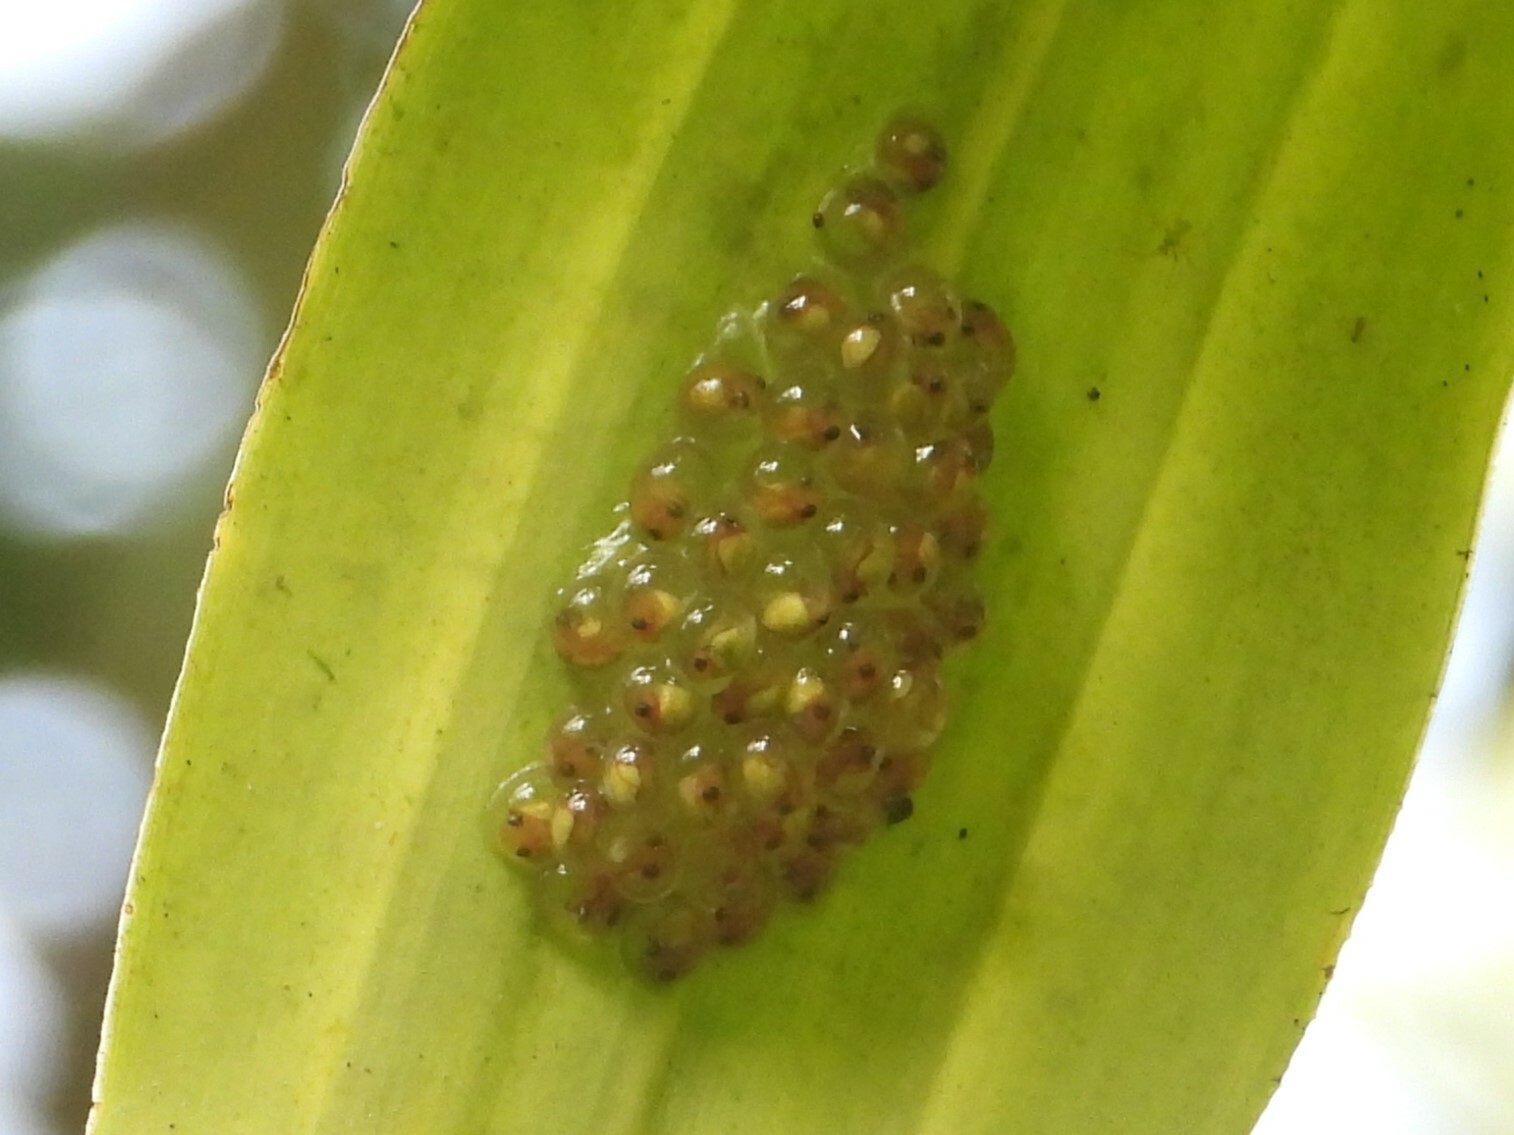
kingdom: Animalia
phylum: Chordata
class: Amphibia
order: Anura
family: Phyllomedusidae
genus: Agalychnis
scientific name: Agalychnis callidryas
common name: Red-eyed treefrog
